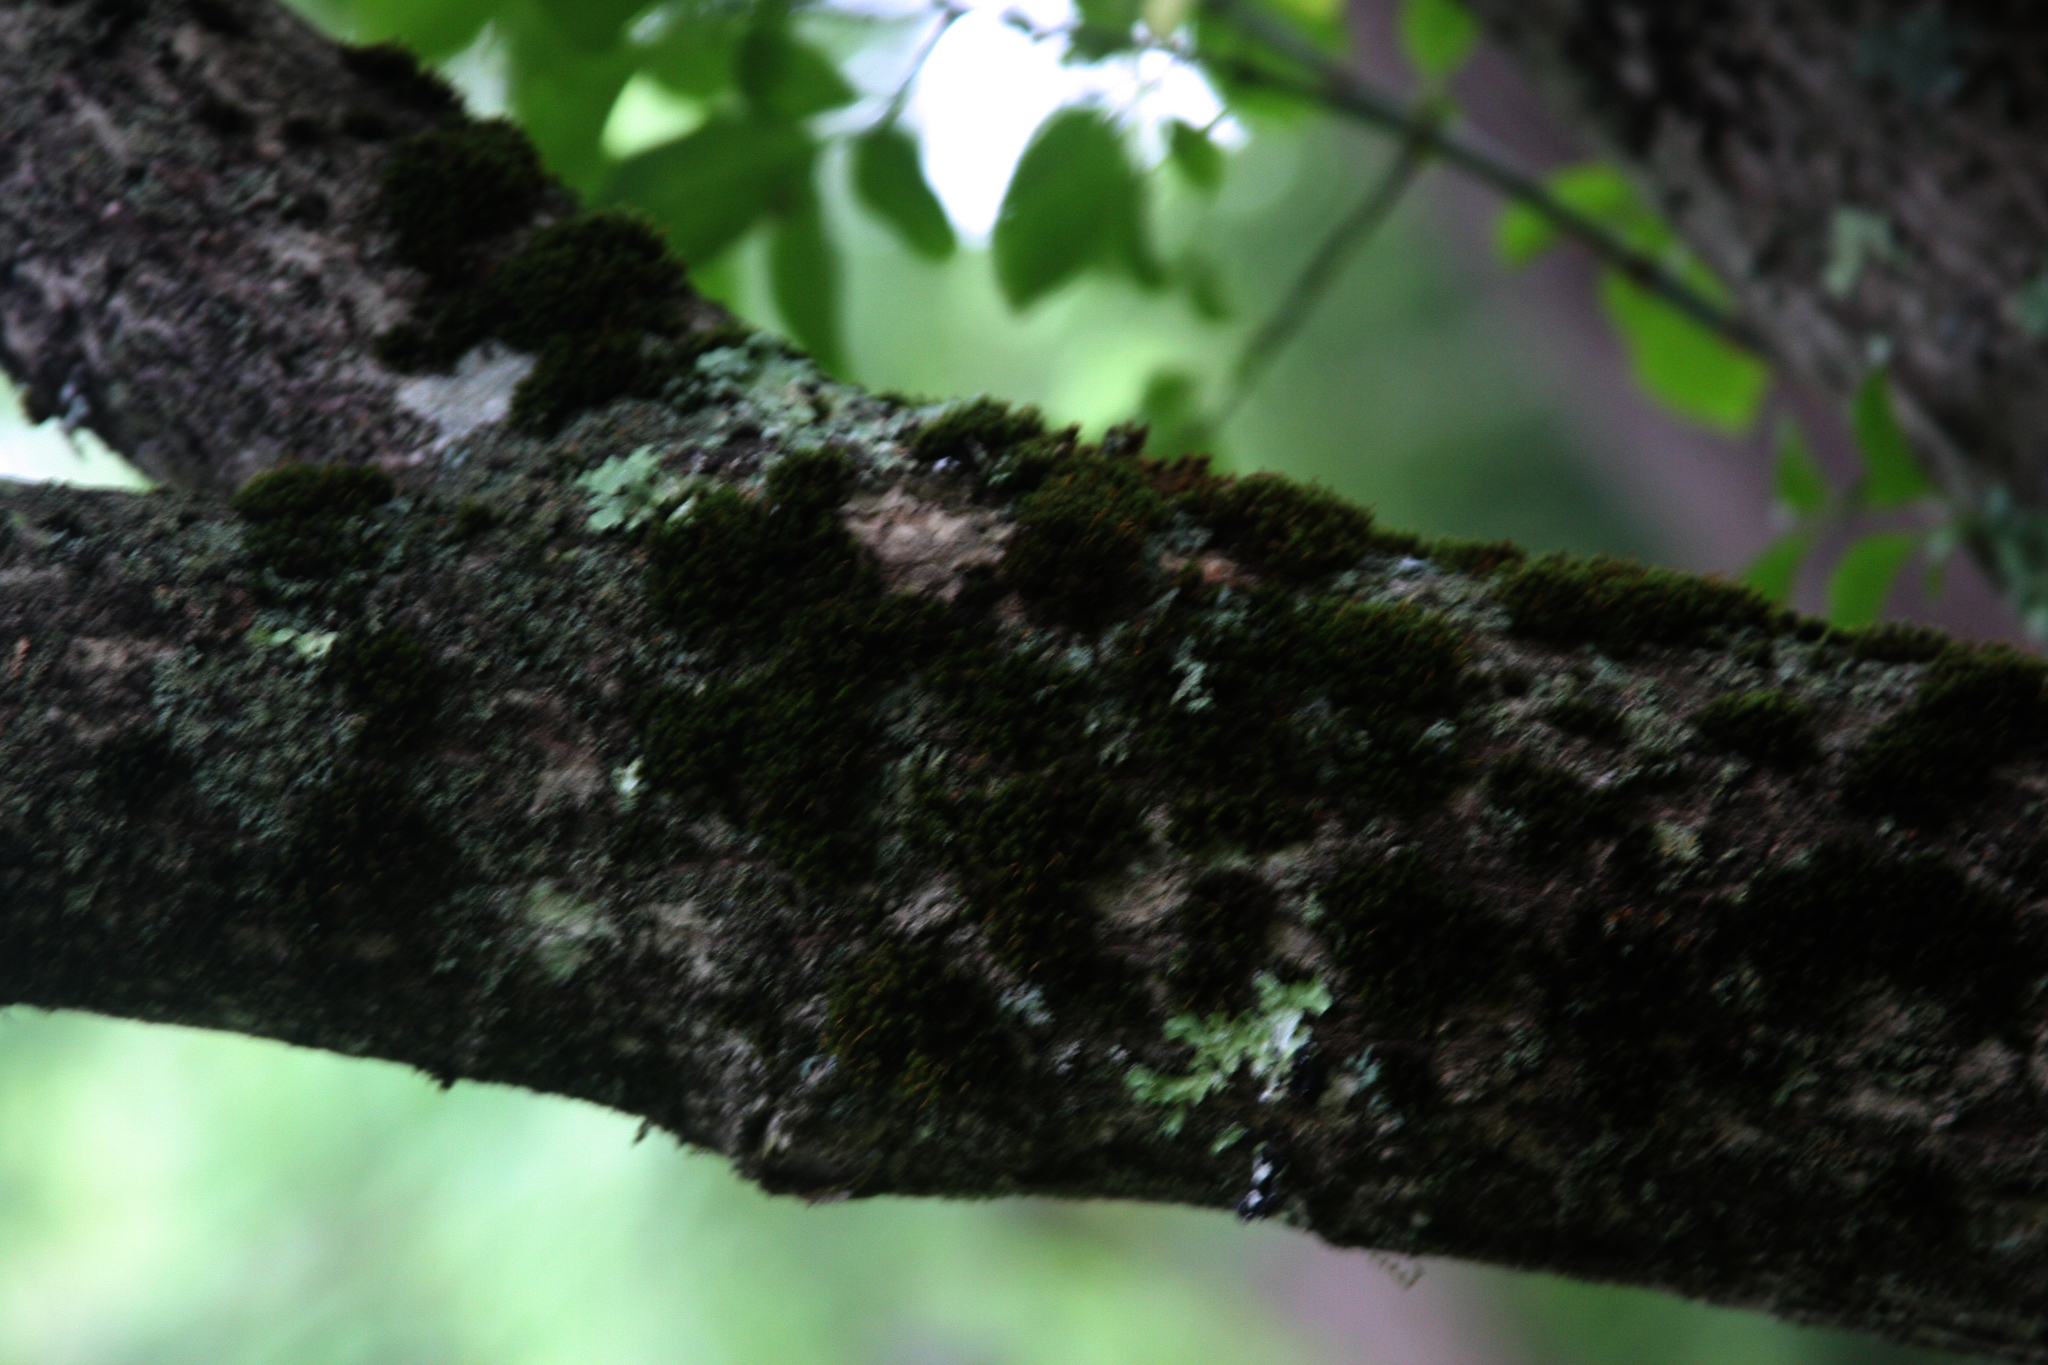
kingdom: Plantae
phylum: Bryophyta
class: Bryopsida
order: Orthotrichales
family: Orthotrichaceae
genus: Ulota
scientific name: Ulota crispa
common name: Crisped pincushion moss
